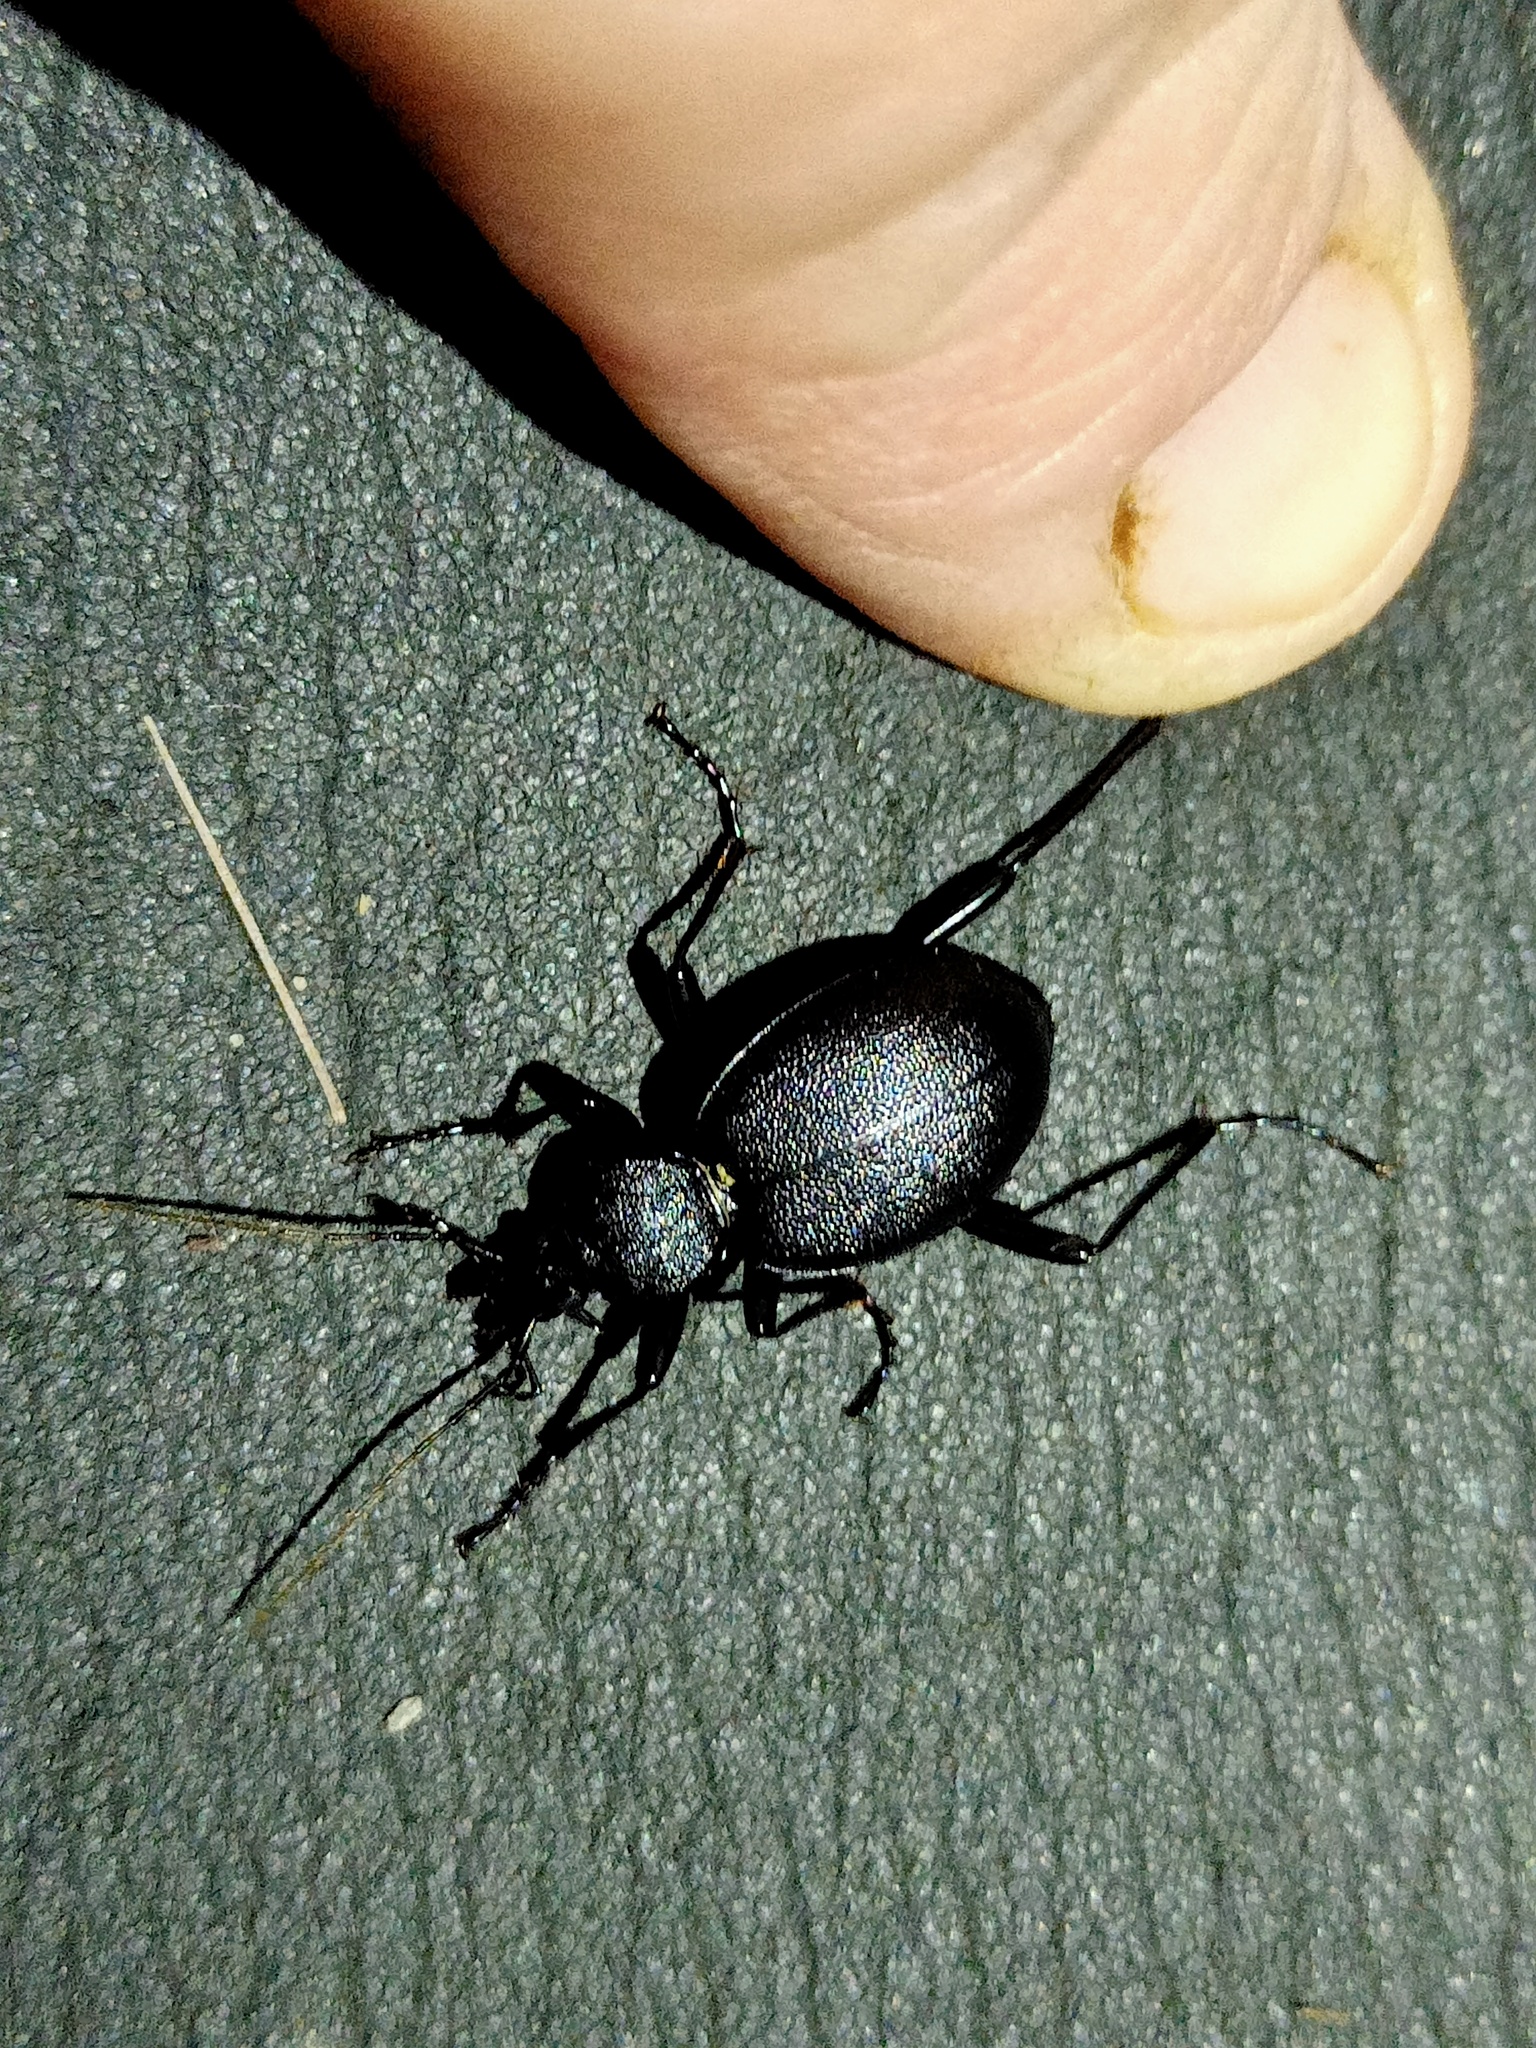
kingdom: Animalia
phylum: Arthropoda
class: Insecta
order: Coleoptera
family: Carabidae
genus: Cychrus
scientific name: Cychrus caraboides
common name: Snail hunter
